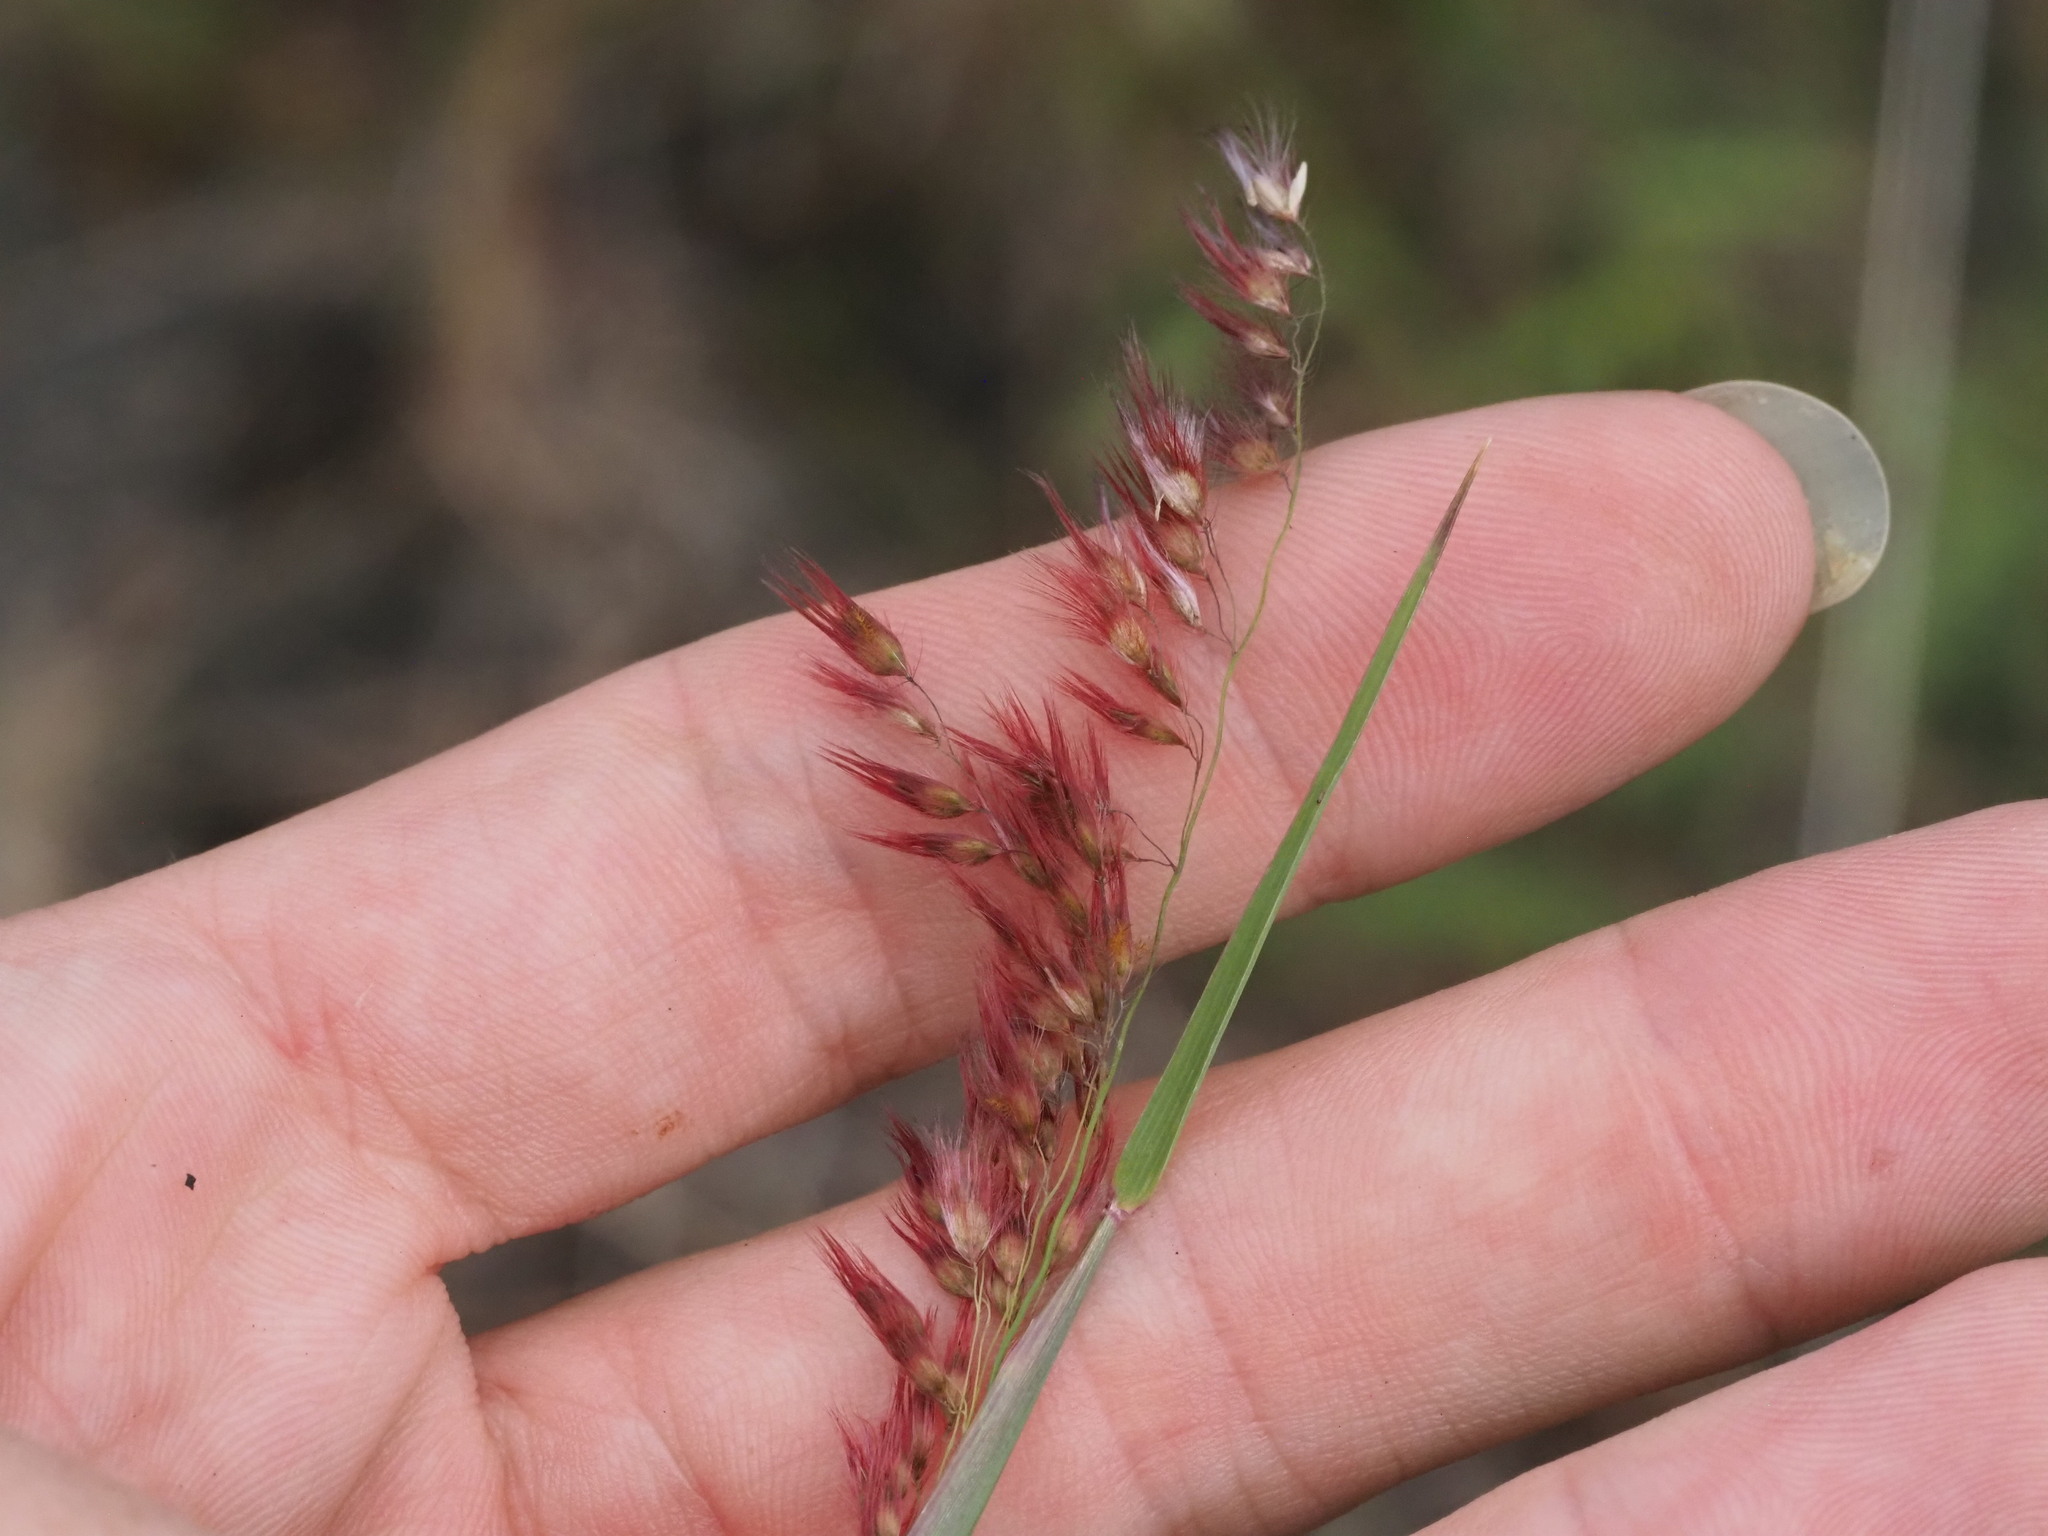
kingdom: Plantae
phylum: Tracheophyta
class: Liliopsida
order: Poales
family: Poaceae
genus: Melinis
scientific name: Melinis repens
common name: Rose natal grass
